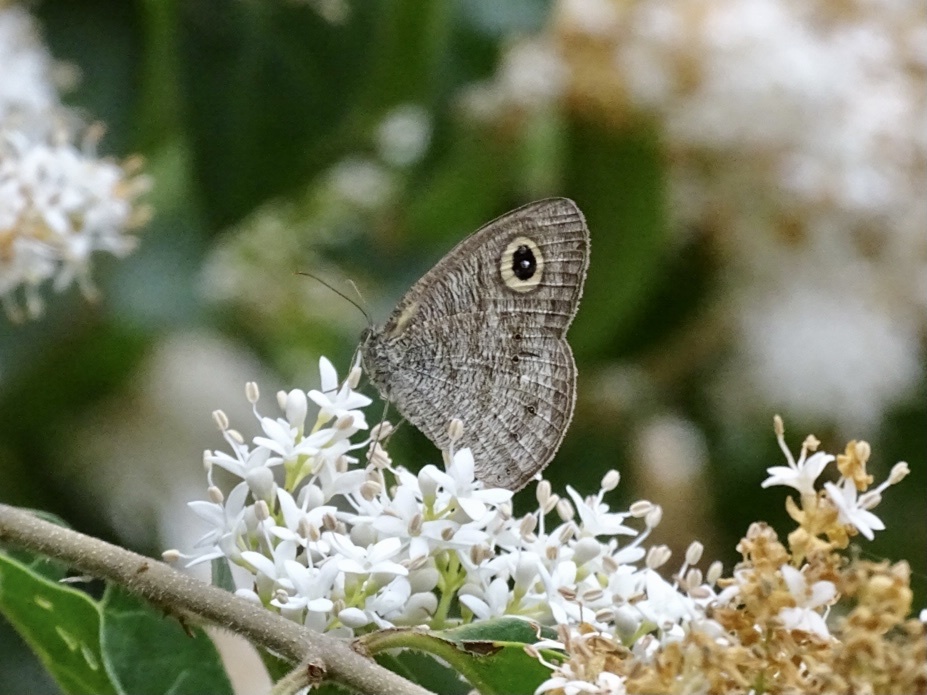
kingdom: Animalia
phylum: Arthropoda
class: Insecta
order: Lepidoptera
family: Nymphalidae
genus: Ypthima
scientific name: Ypthima baldus
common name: Common five-ring
